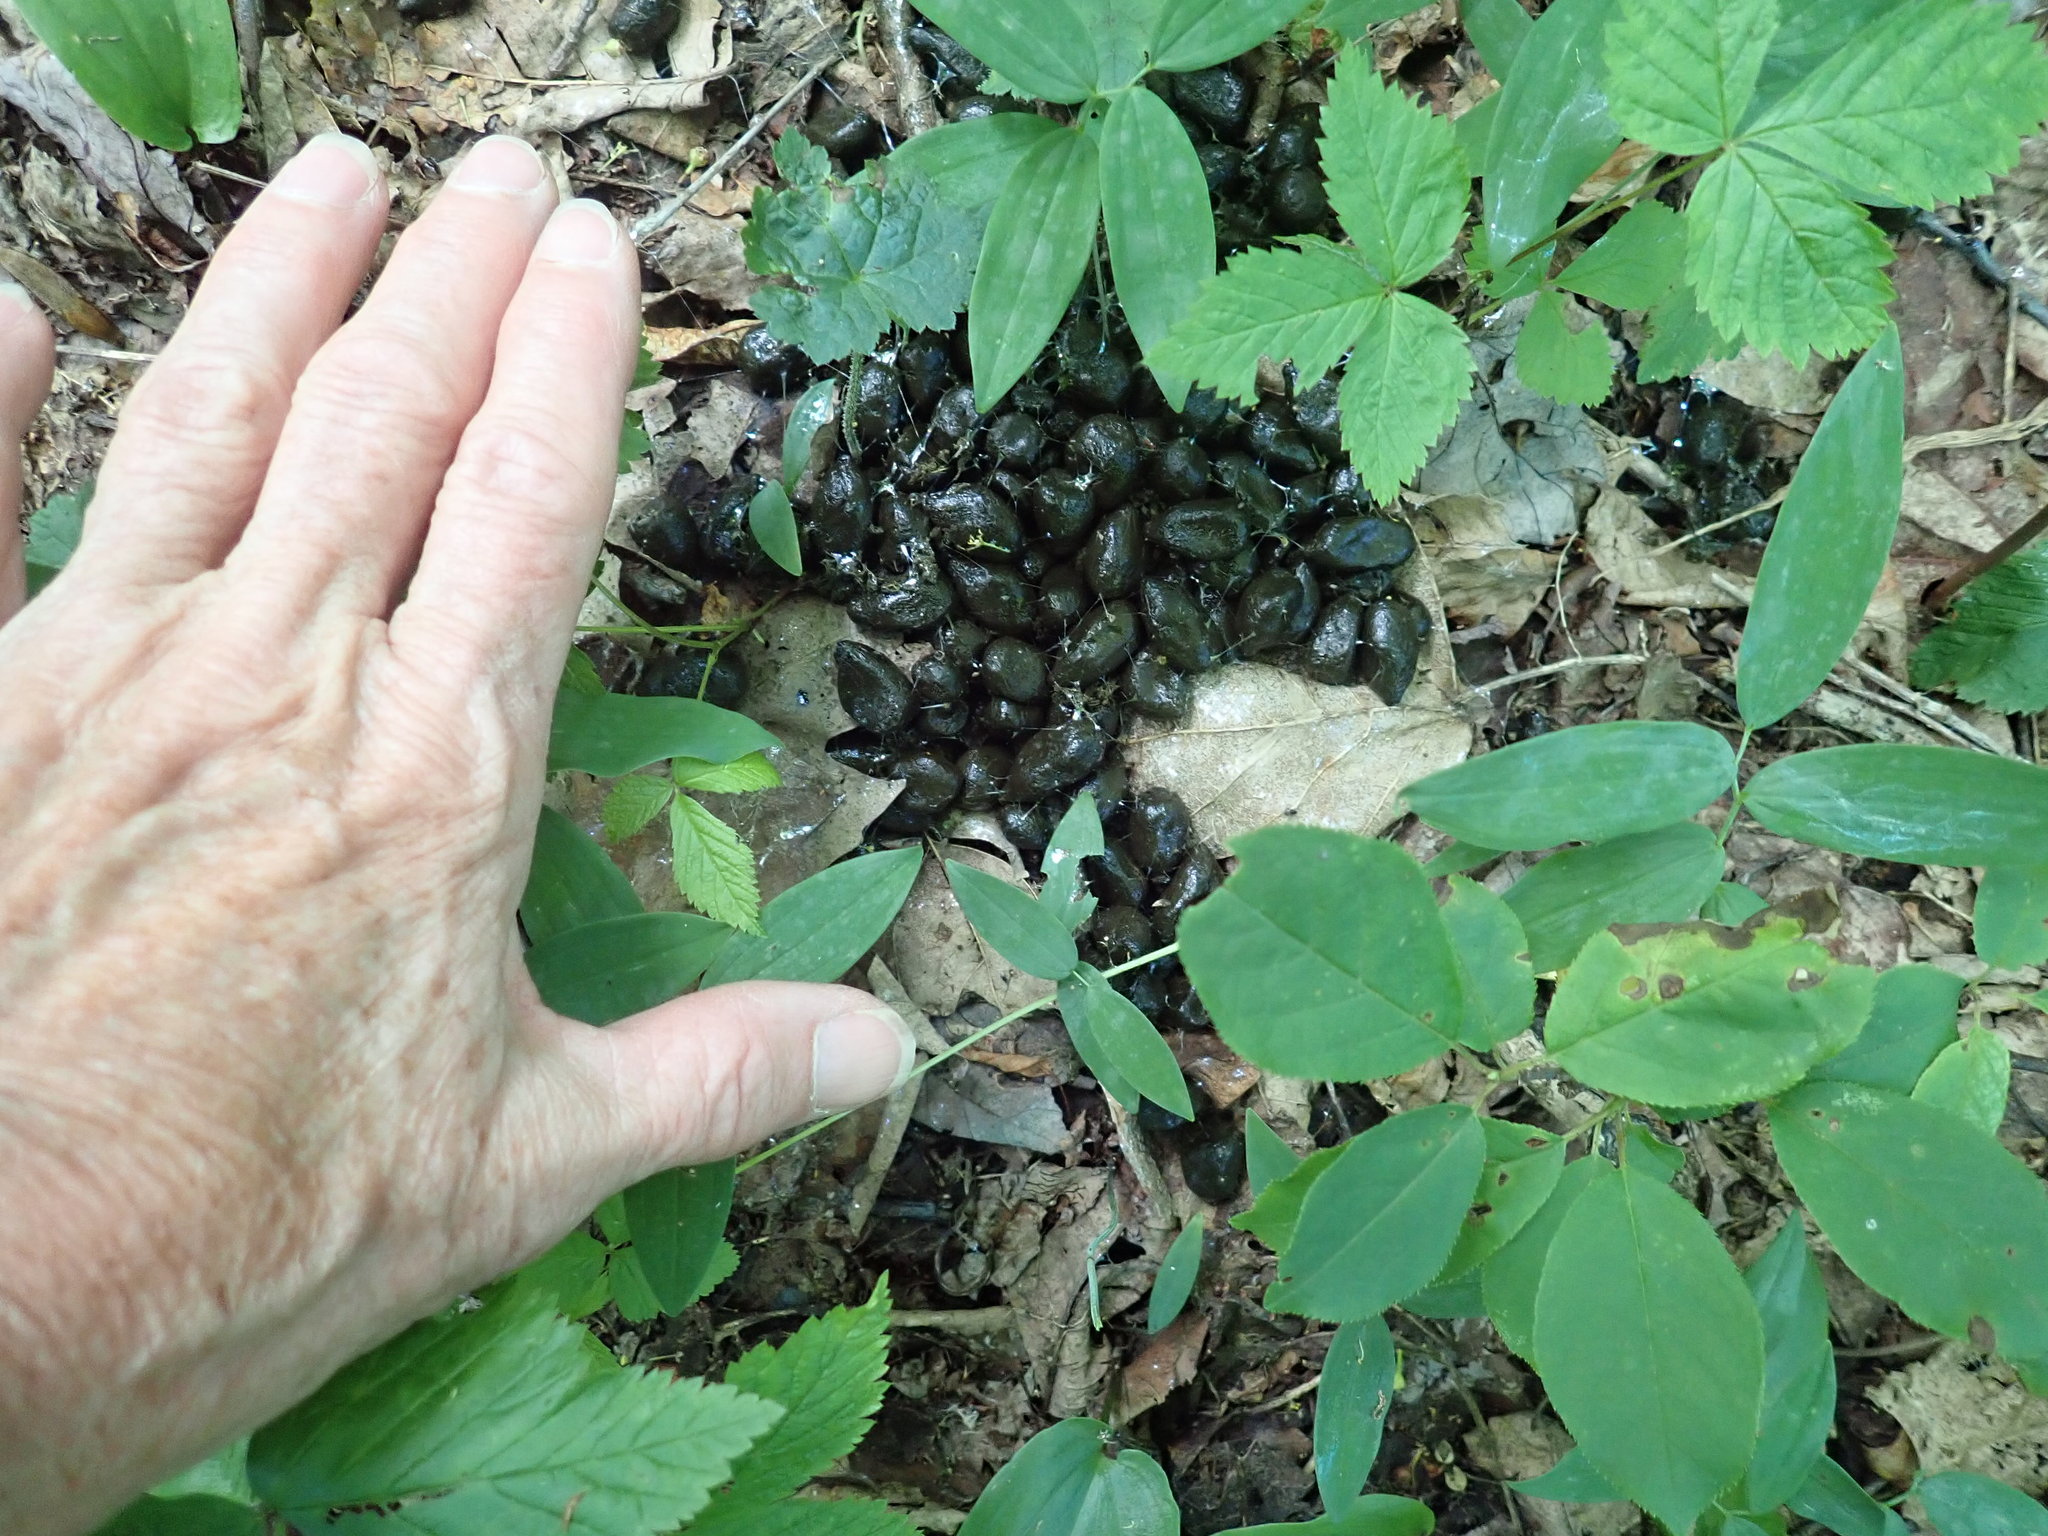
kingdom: Animalia
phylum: Chordata
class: Mammalia
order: Artiodactyla
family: Cervidae
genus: Odocoileus
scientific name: Odocoileus virginianus
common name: White-tailed deer
